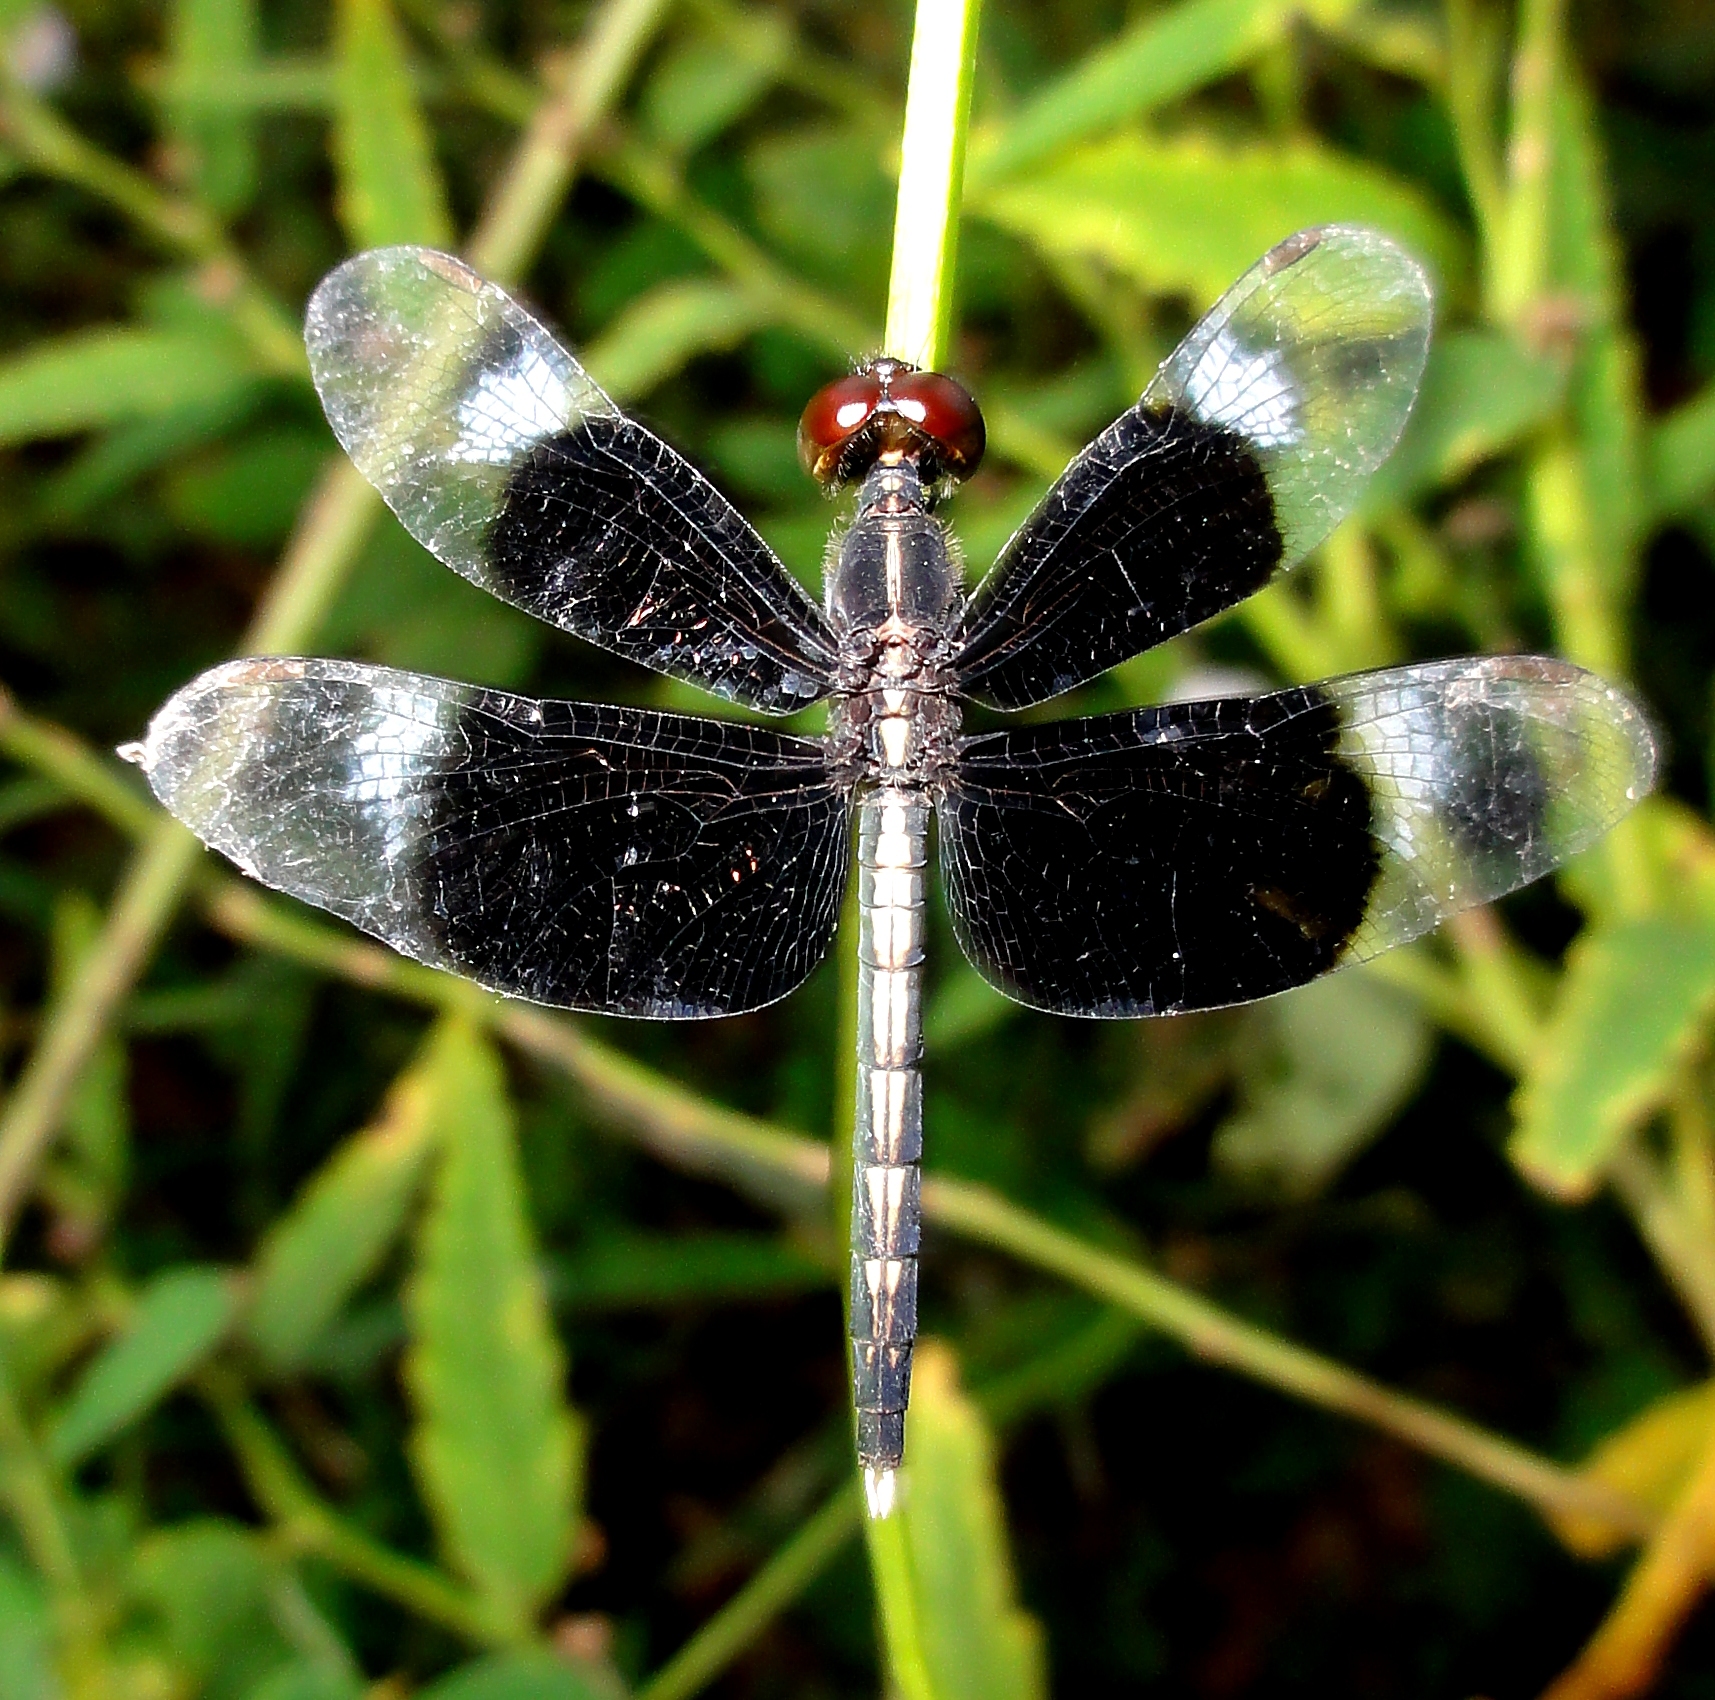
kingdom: Animalia
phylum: Arthropoda
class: Insecta
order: Odonata
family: Libellulidae
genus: Neurothemis
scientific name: Neurothemis tullia
